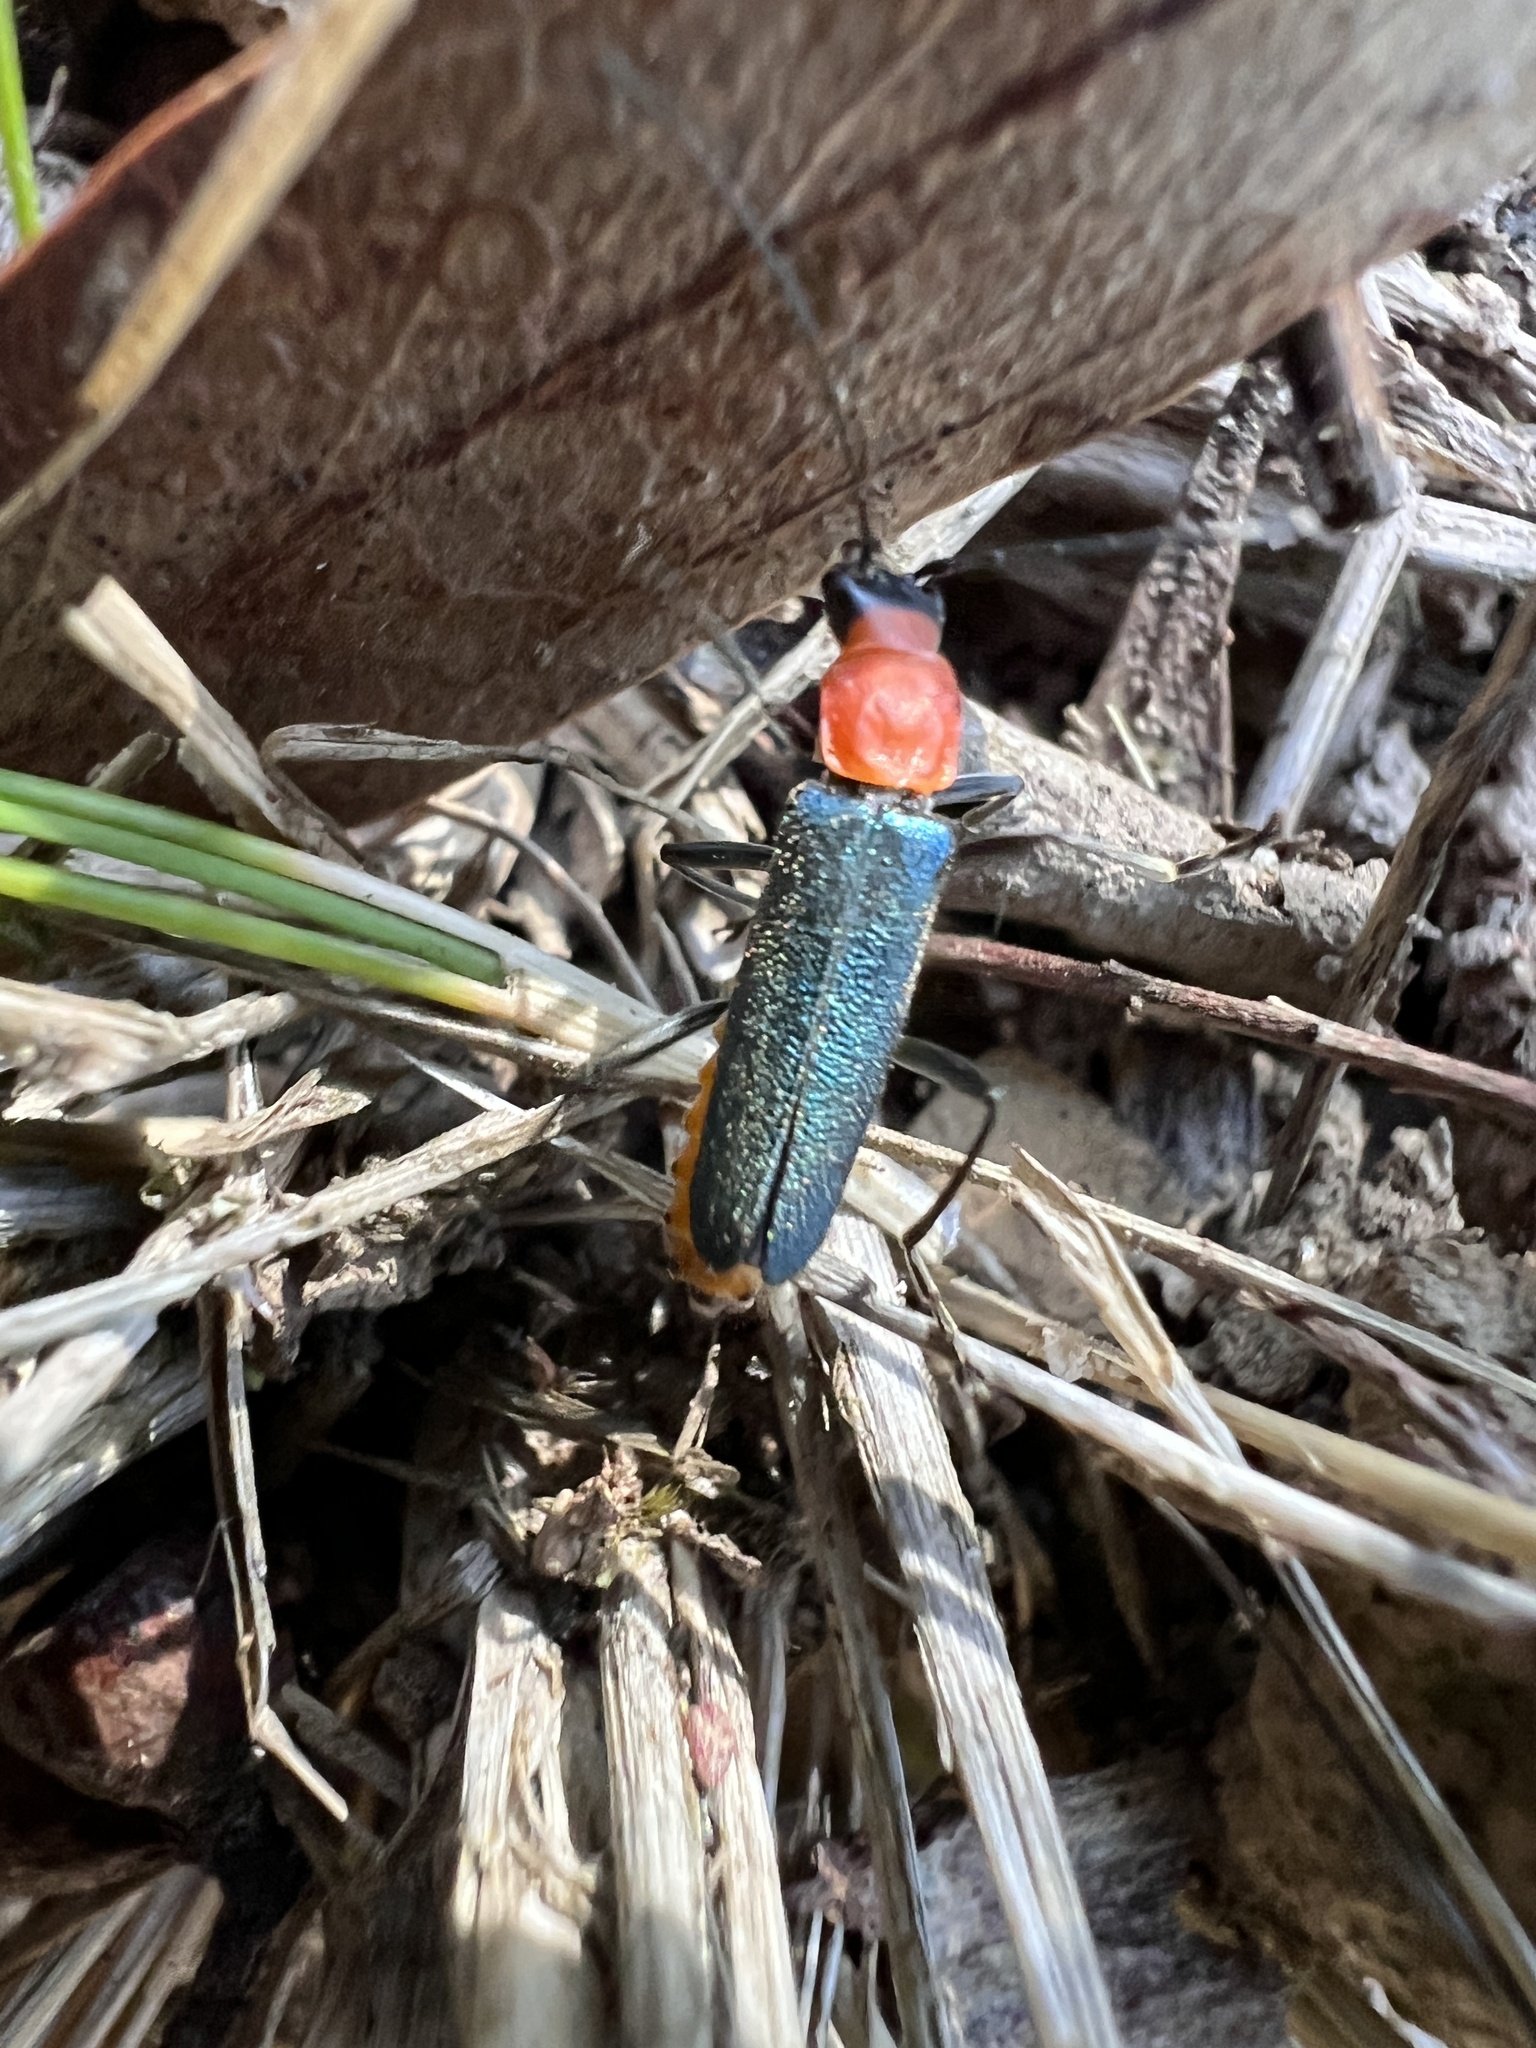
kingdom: Animalia
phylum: Arthropoda
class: Insecta
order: Coleoptera
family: Cantharidae
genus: Chauliognathus
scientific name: Chauliognathus
